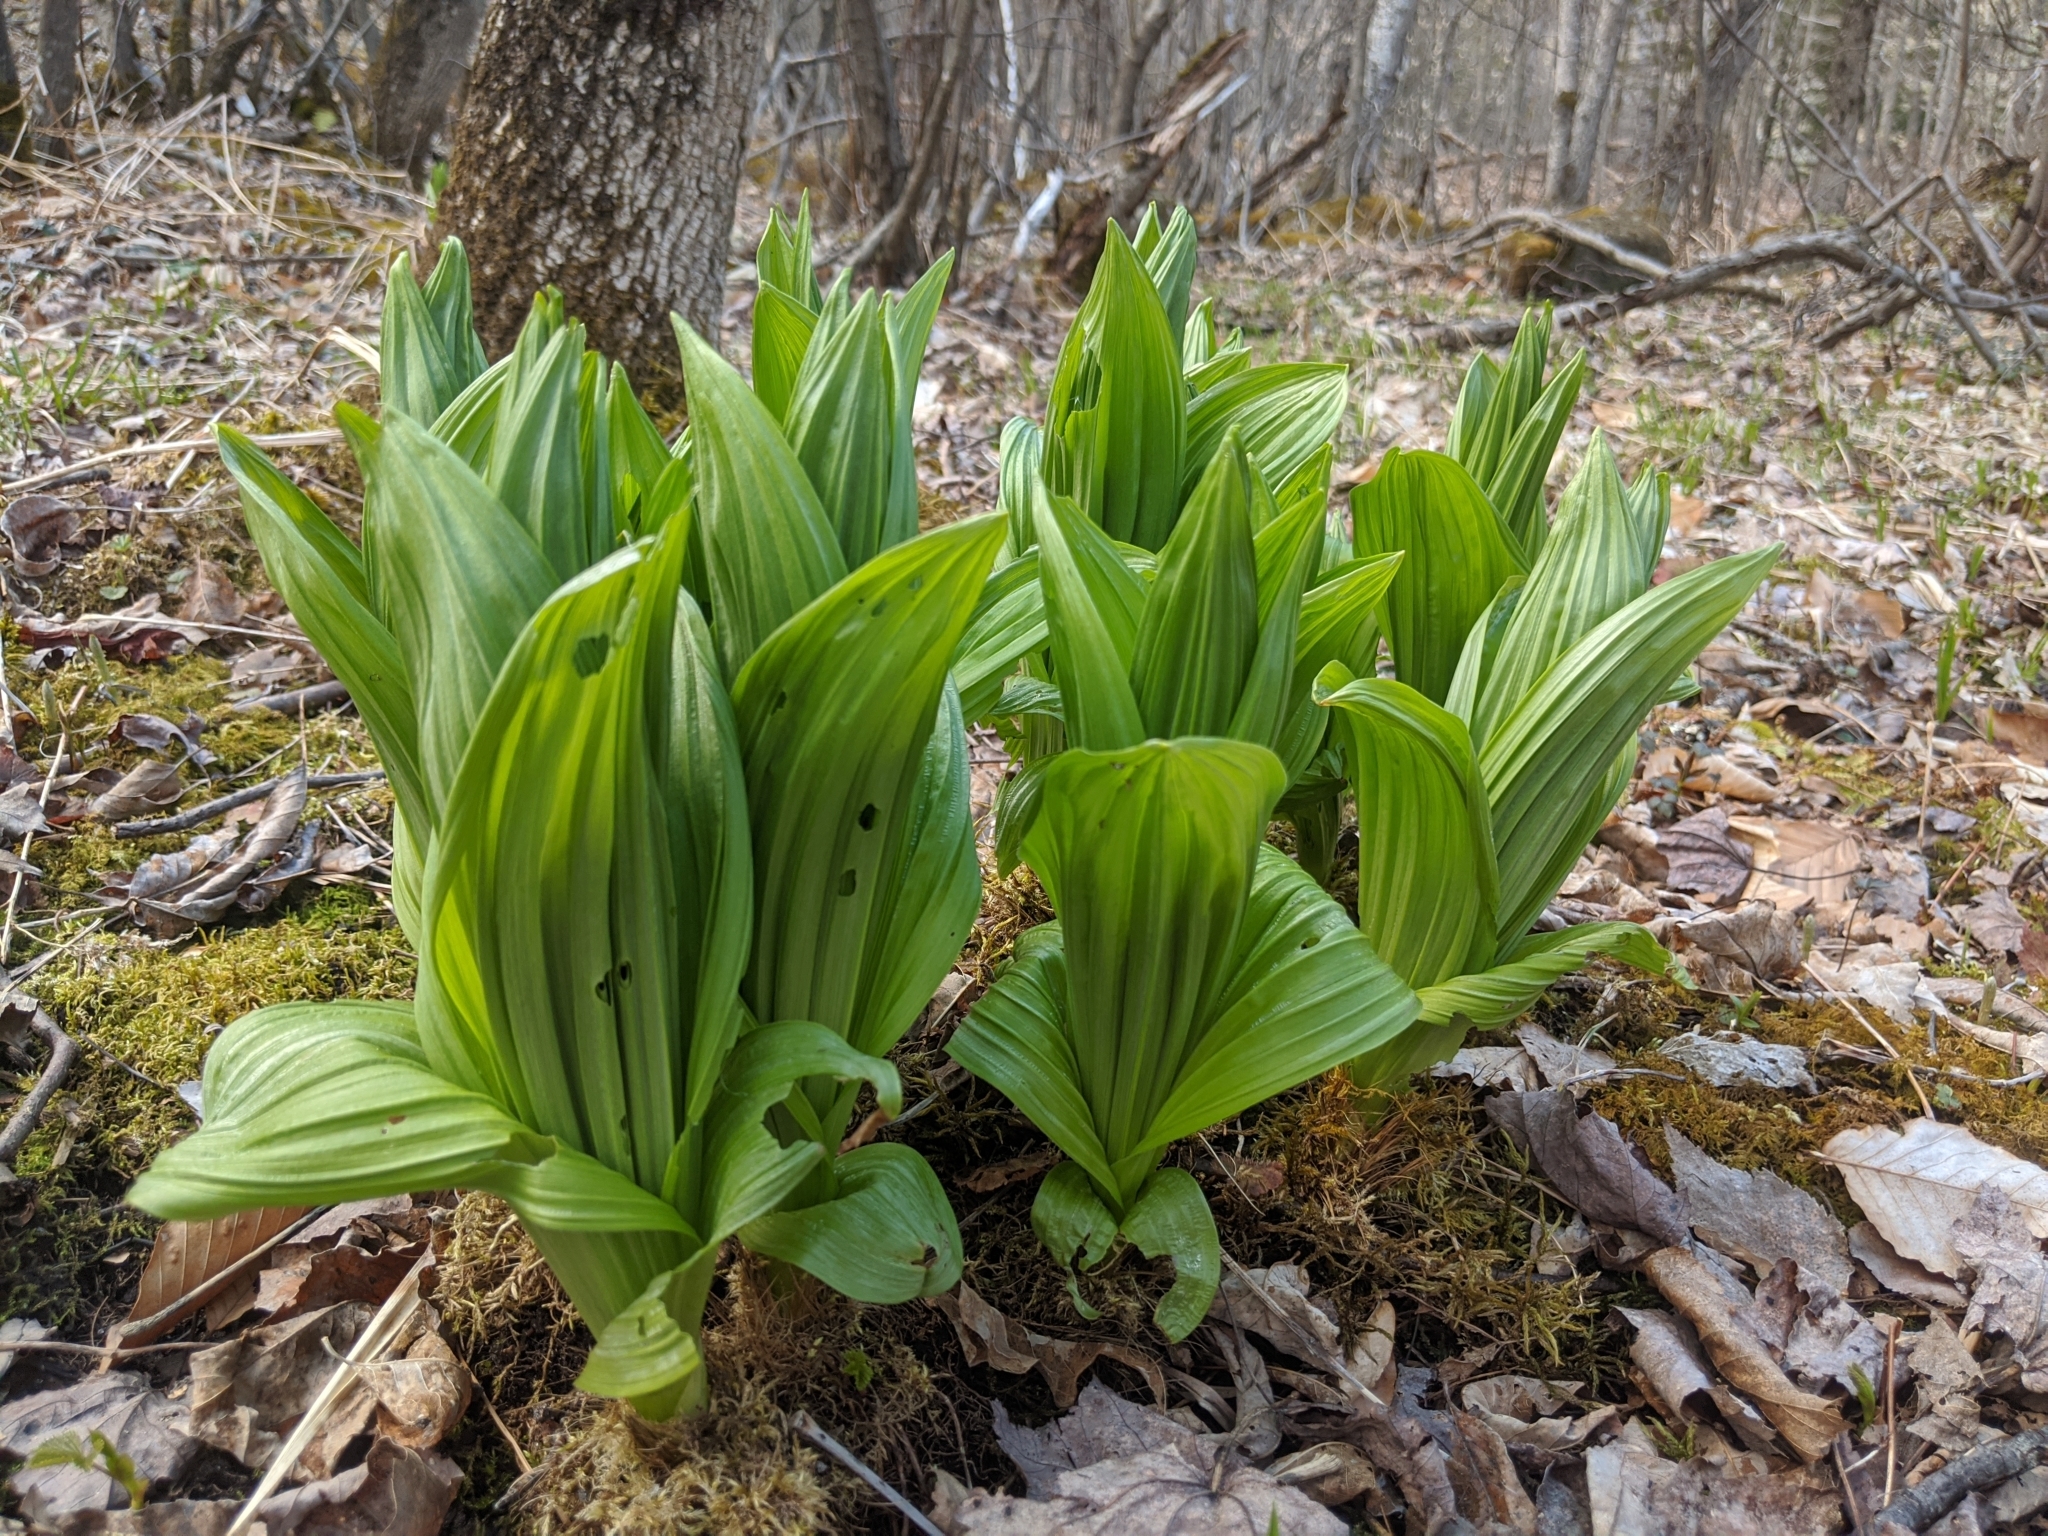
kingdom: Plantae
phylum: Tracheophyta
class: Liliopsida
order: Liliales
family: Melanthiaceae
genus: Veratrum
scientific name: Veratrum viride
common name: American false hellebore
